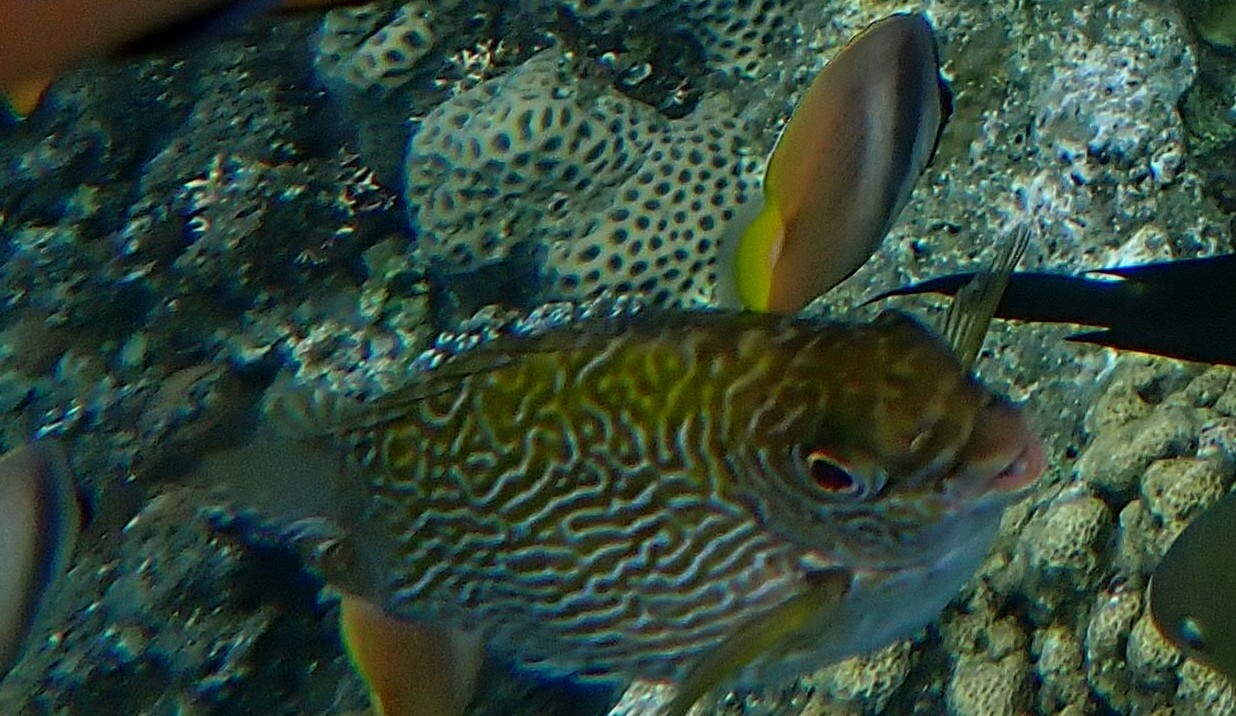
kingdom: Animalia
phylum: Chordata
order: Perciformes
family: Siganidae
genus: Siganus
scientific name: Siganus spinus
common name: Scribbled rabbitfish
